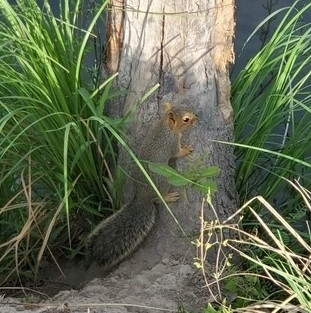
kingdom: Animalia
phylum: Chordata
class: Mammalia
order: Rodentia
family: Sciuridae
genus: Sciurus
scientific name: Sciurus niger
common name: Fox squirrel
